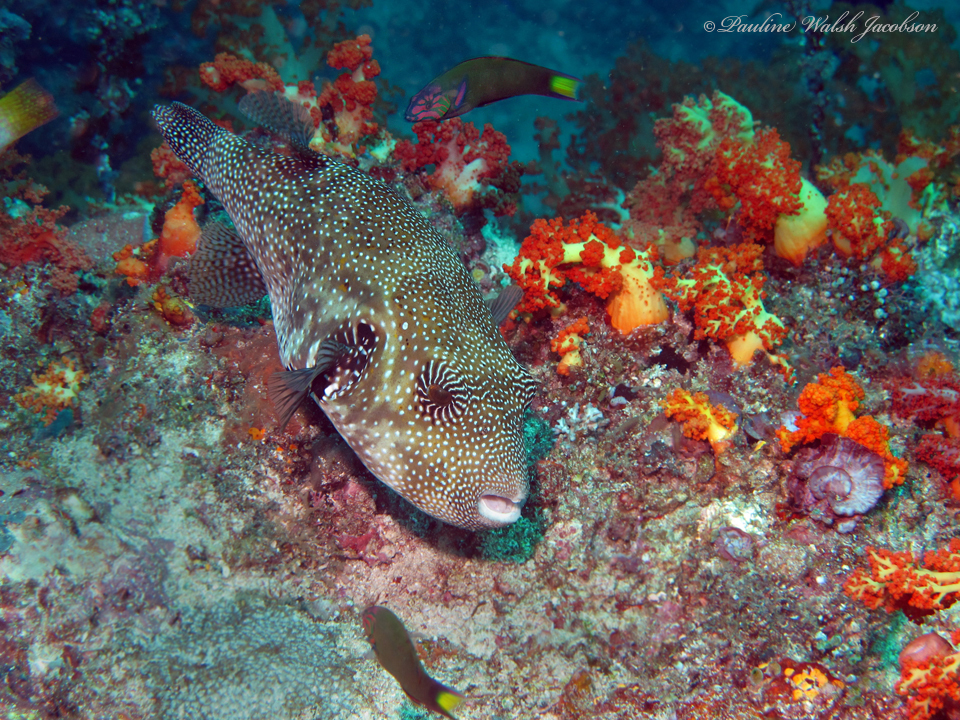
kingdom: Animalia
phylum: Chordata
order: Tetraodontiformes
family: Tetraodontidae
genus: Arothron
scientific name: Arothron mappa
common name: Map blaasop
